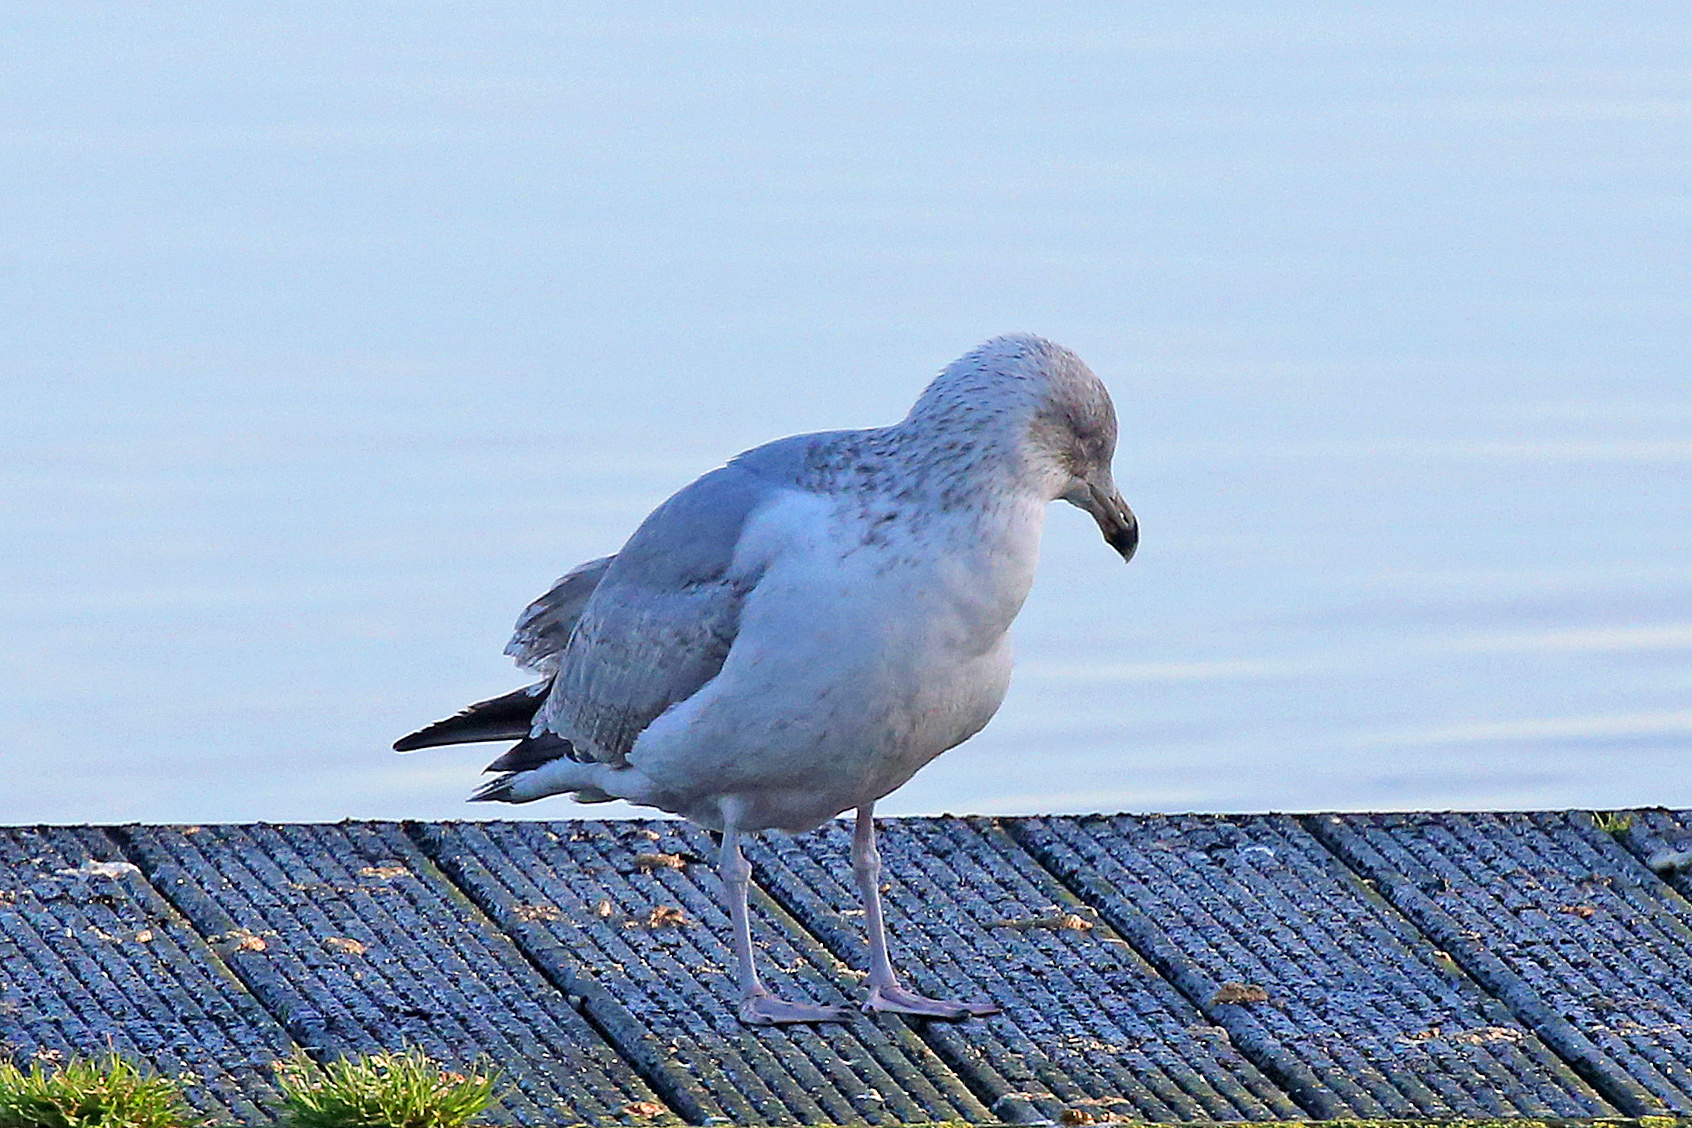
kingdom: Animalia
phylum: Chordata
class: Aves
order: Charadriiformes
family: Laridae
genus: Larus
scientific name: Larus argentatus
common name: Herring gull
